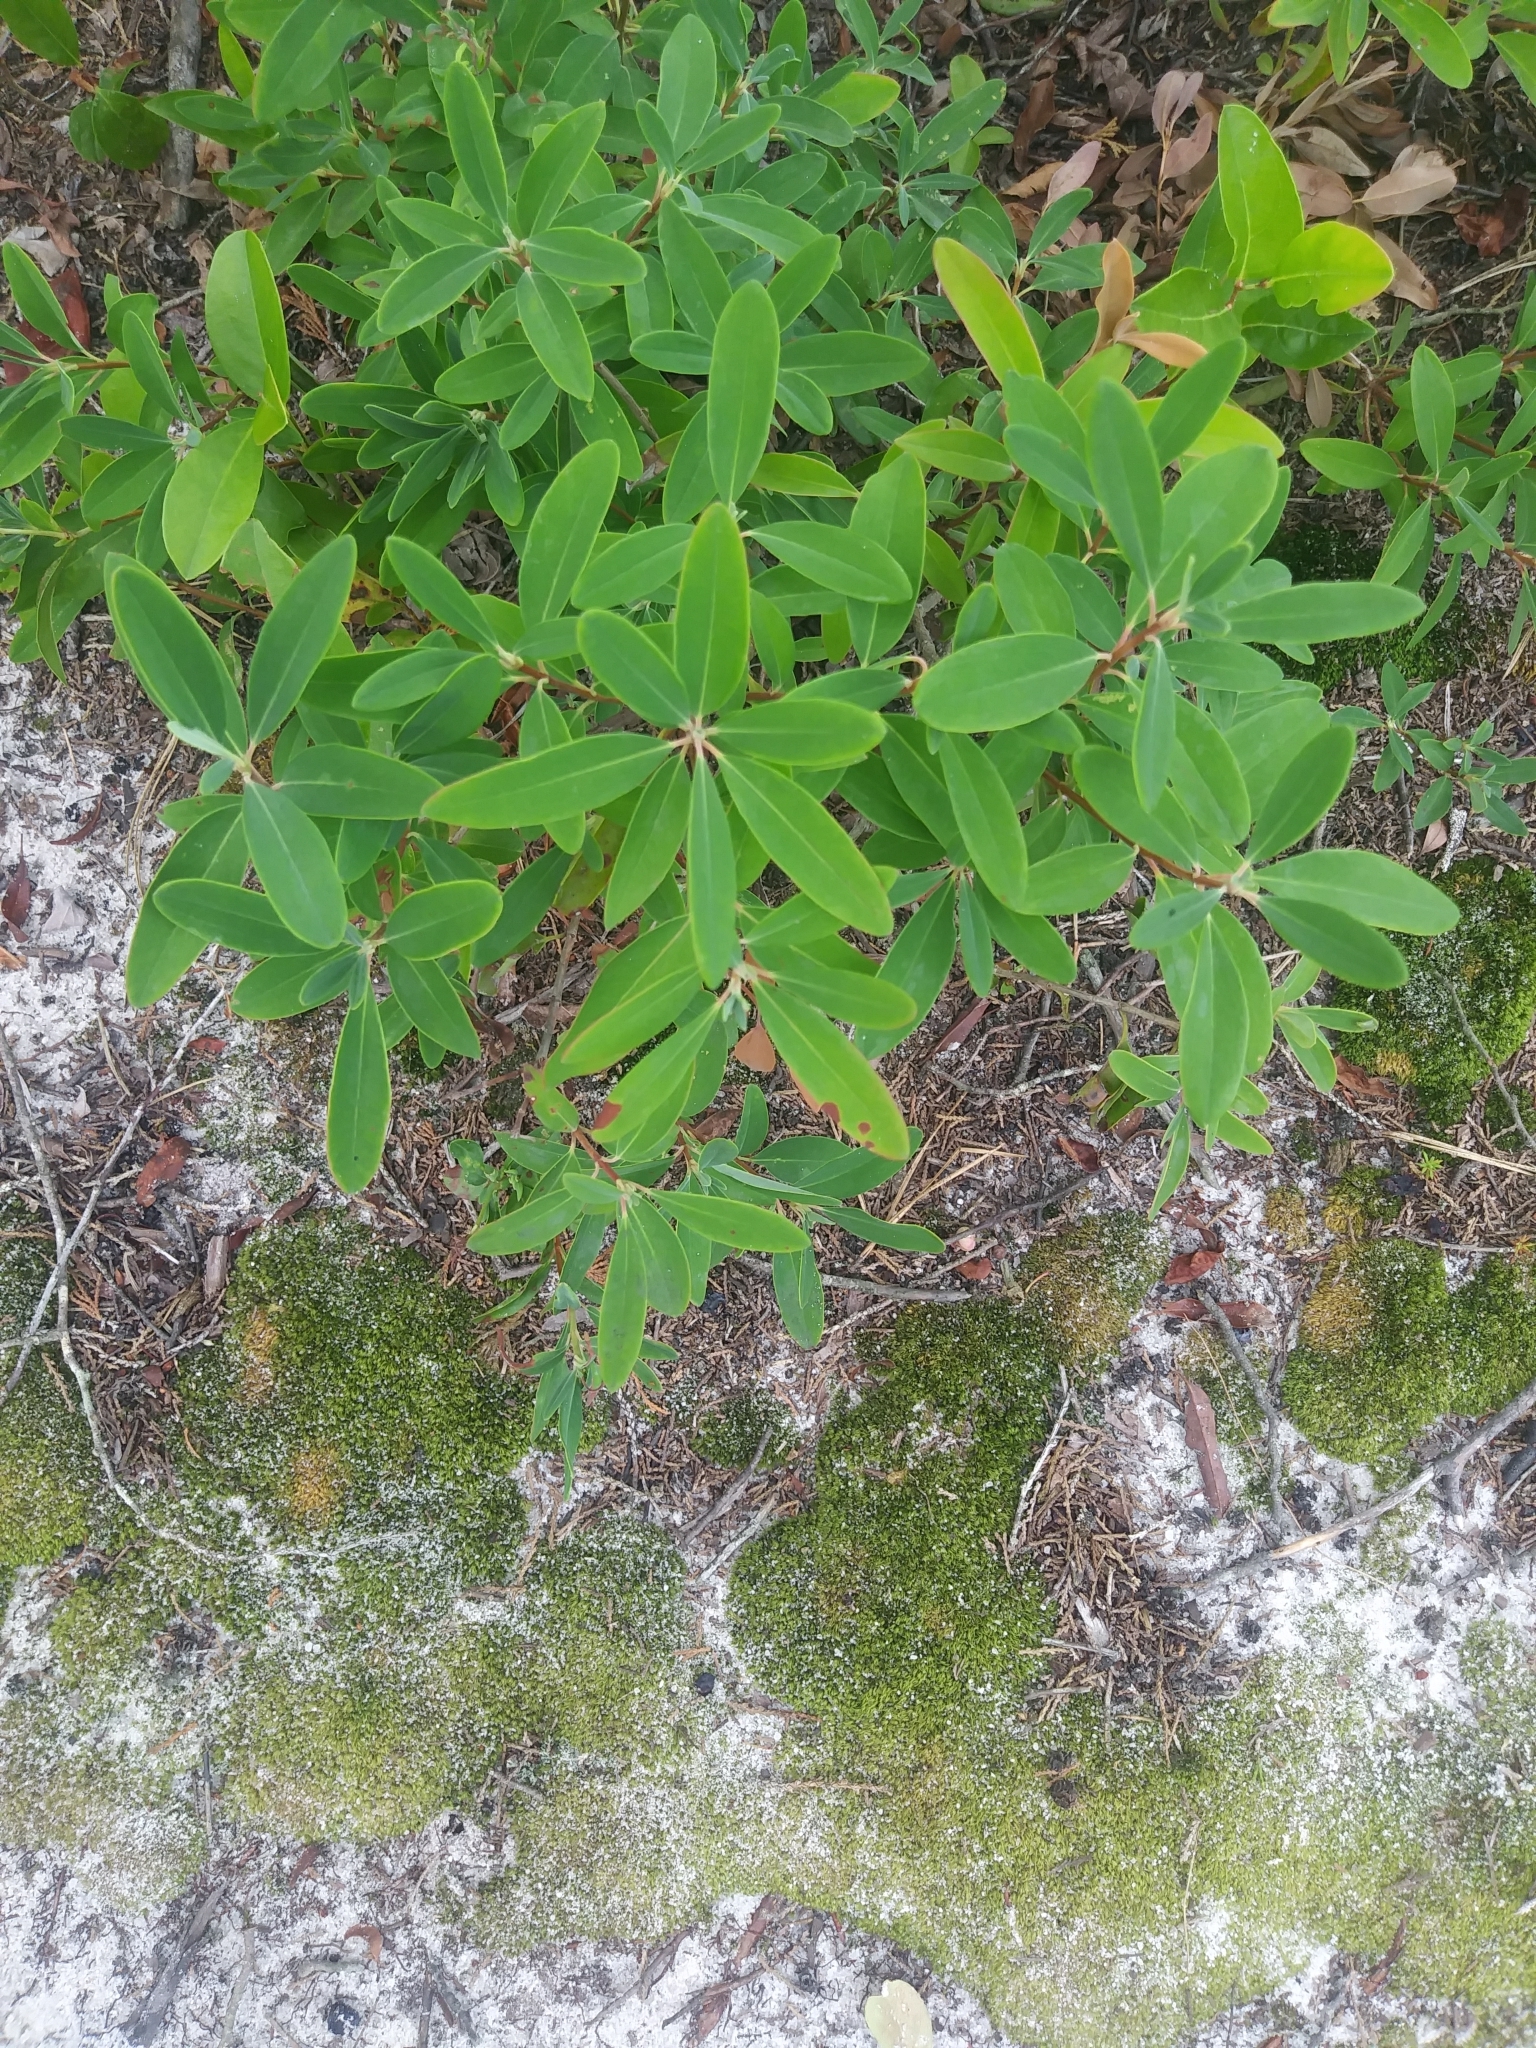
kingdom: Plantae
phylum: Tracheophyta
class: Magnoliopsida
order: Ericales
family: Ericaceae
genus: Kalmia
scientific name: Kalmia angustifolia
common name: Sheep-laurel
